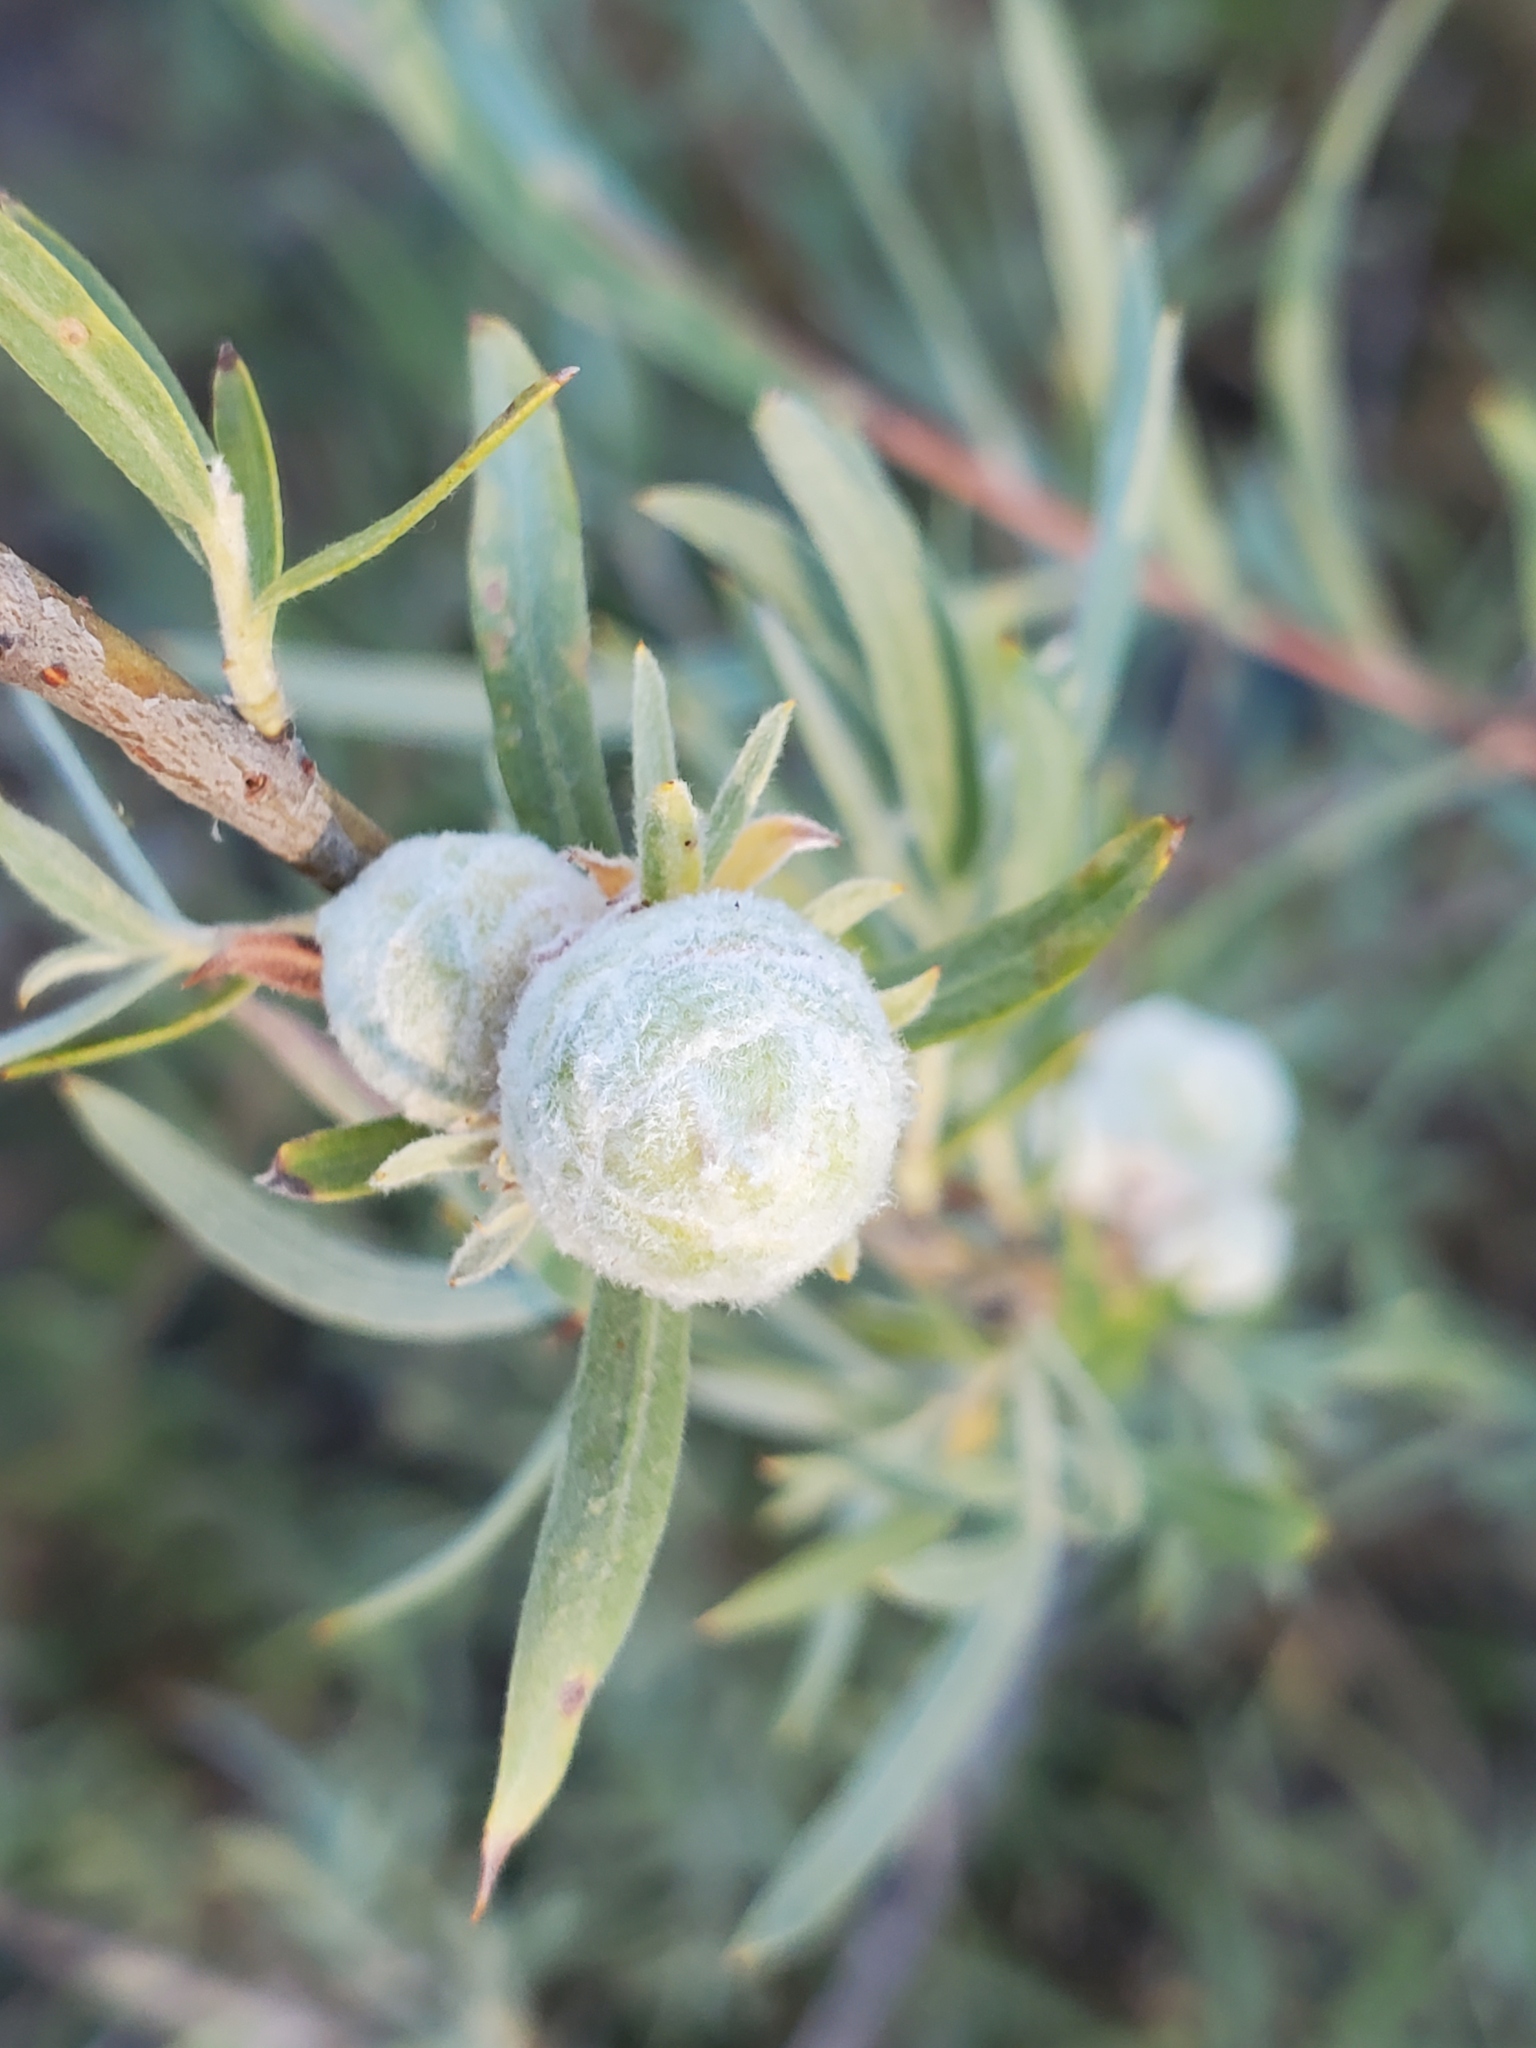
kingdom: Animalia
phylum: Arthropoda
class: Insecta
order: Diptera
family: Cecidomyiidae
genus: Rabdophaga
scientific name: Rabdophaga strobiloides
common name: Willow pinecone gall midge
